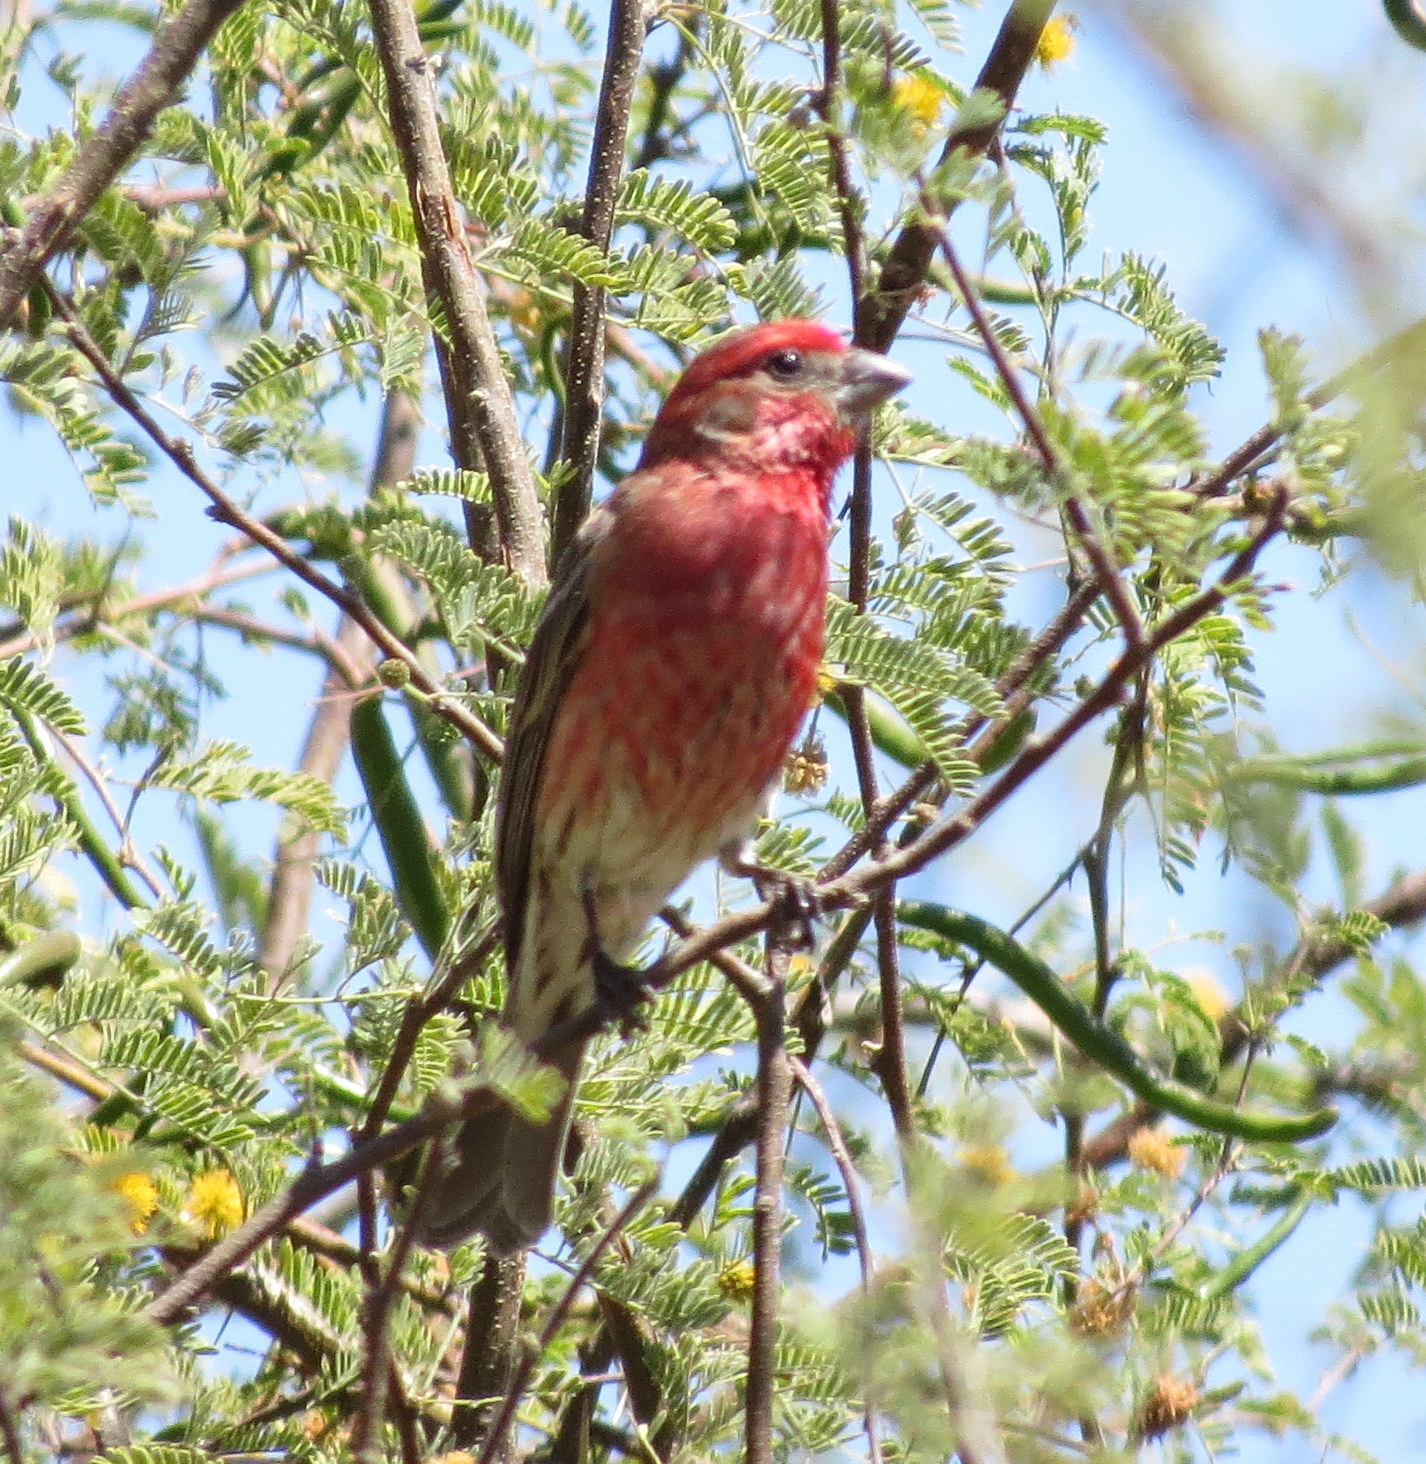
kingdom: Animalia
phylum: Chordata
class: Aves
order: Passeriformes
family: Fringillidae
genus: Haemorhous
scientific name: Haemorhous mexicanus
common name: House finch
